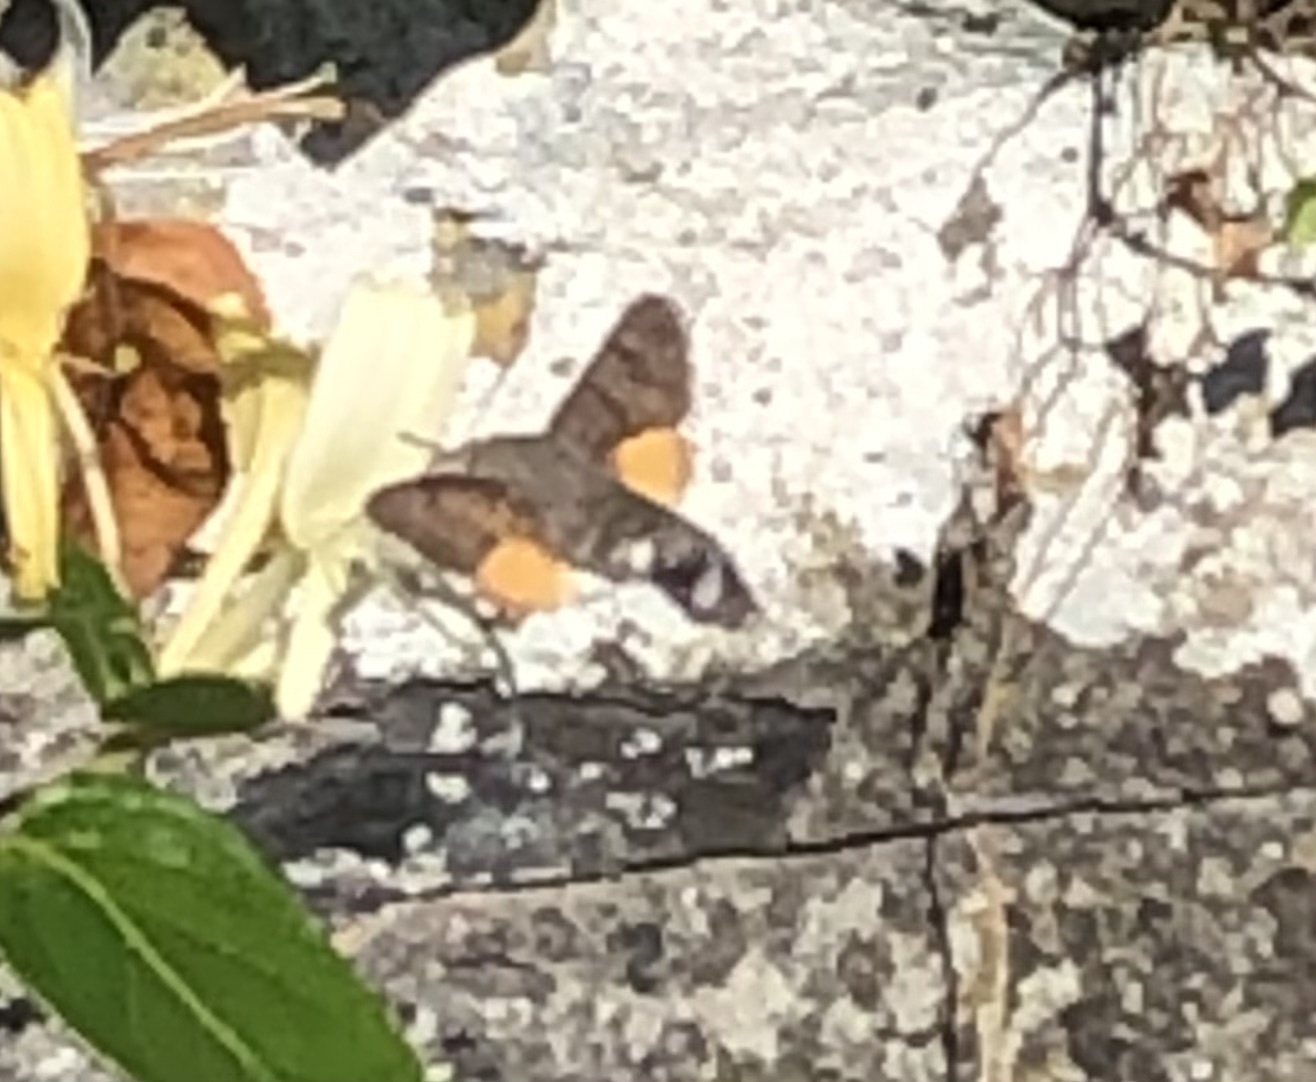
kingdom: Animalia
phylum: Arthropoda
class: Insecta
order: Lepidoptera
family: Sphingidae
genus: Macroglossum
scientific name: Macroglossum stellatarum
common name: Humming-bird hawk-moth
